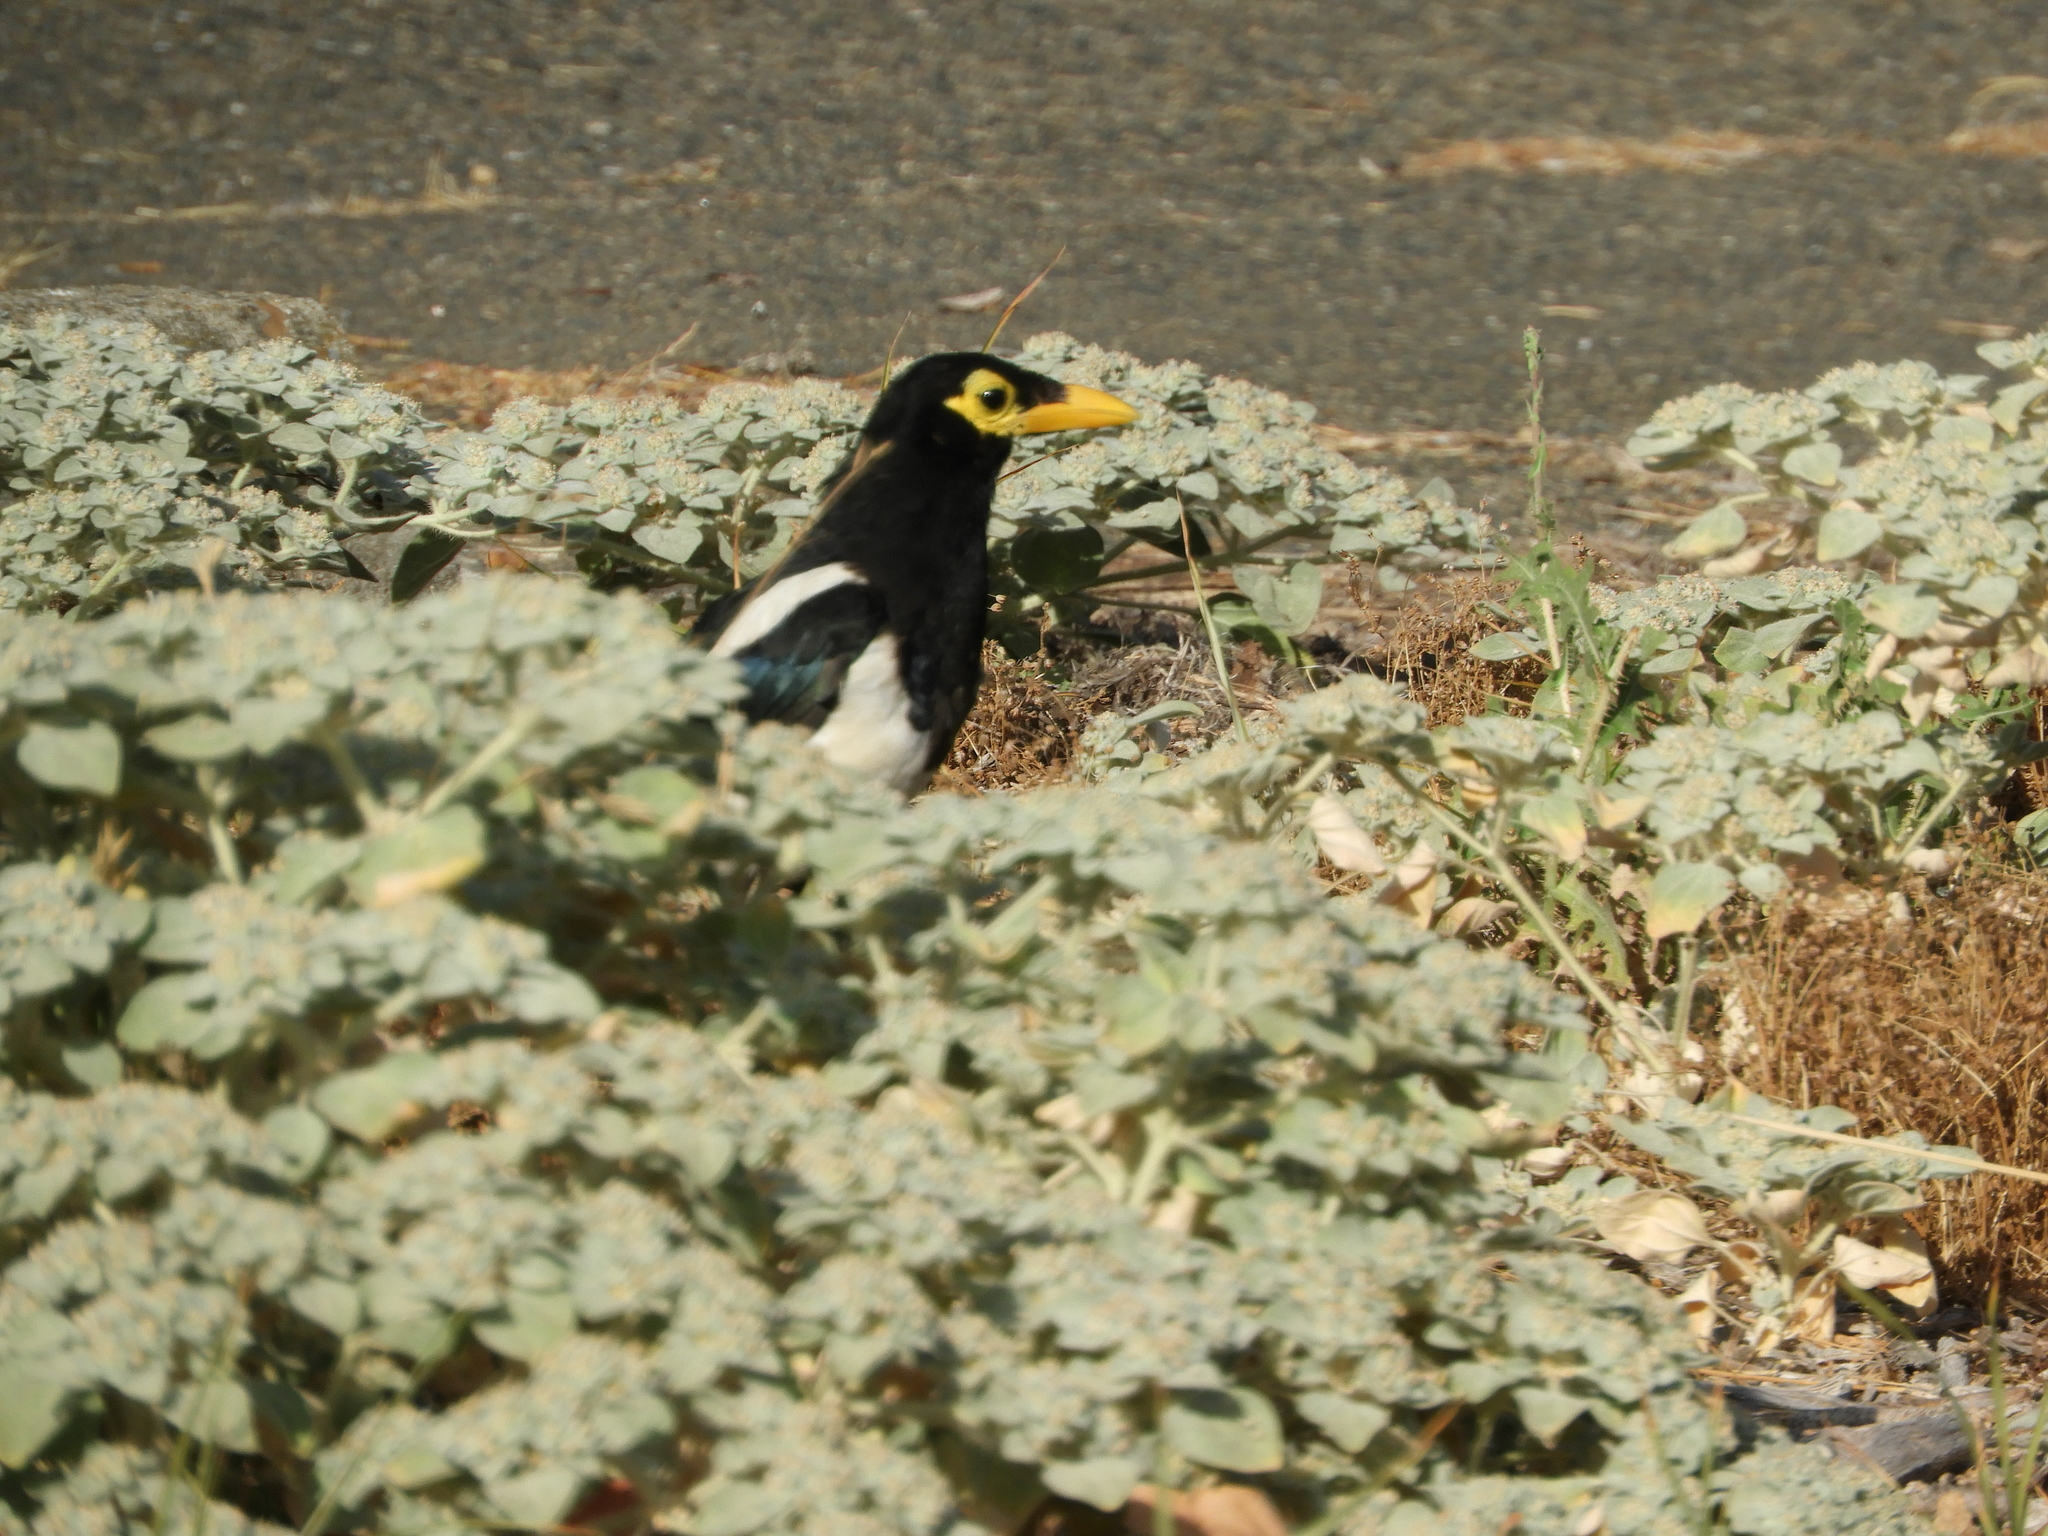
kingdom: Animalia
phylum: Chordata
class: Aves
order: Passeriformes
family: Corvidae
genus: Pica
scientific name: Pica nuttalli
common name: Yellow-billed magpie
